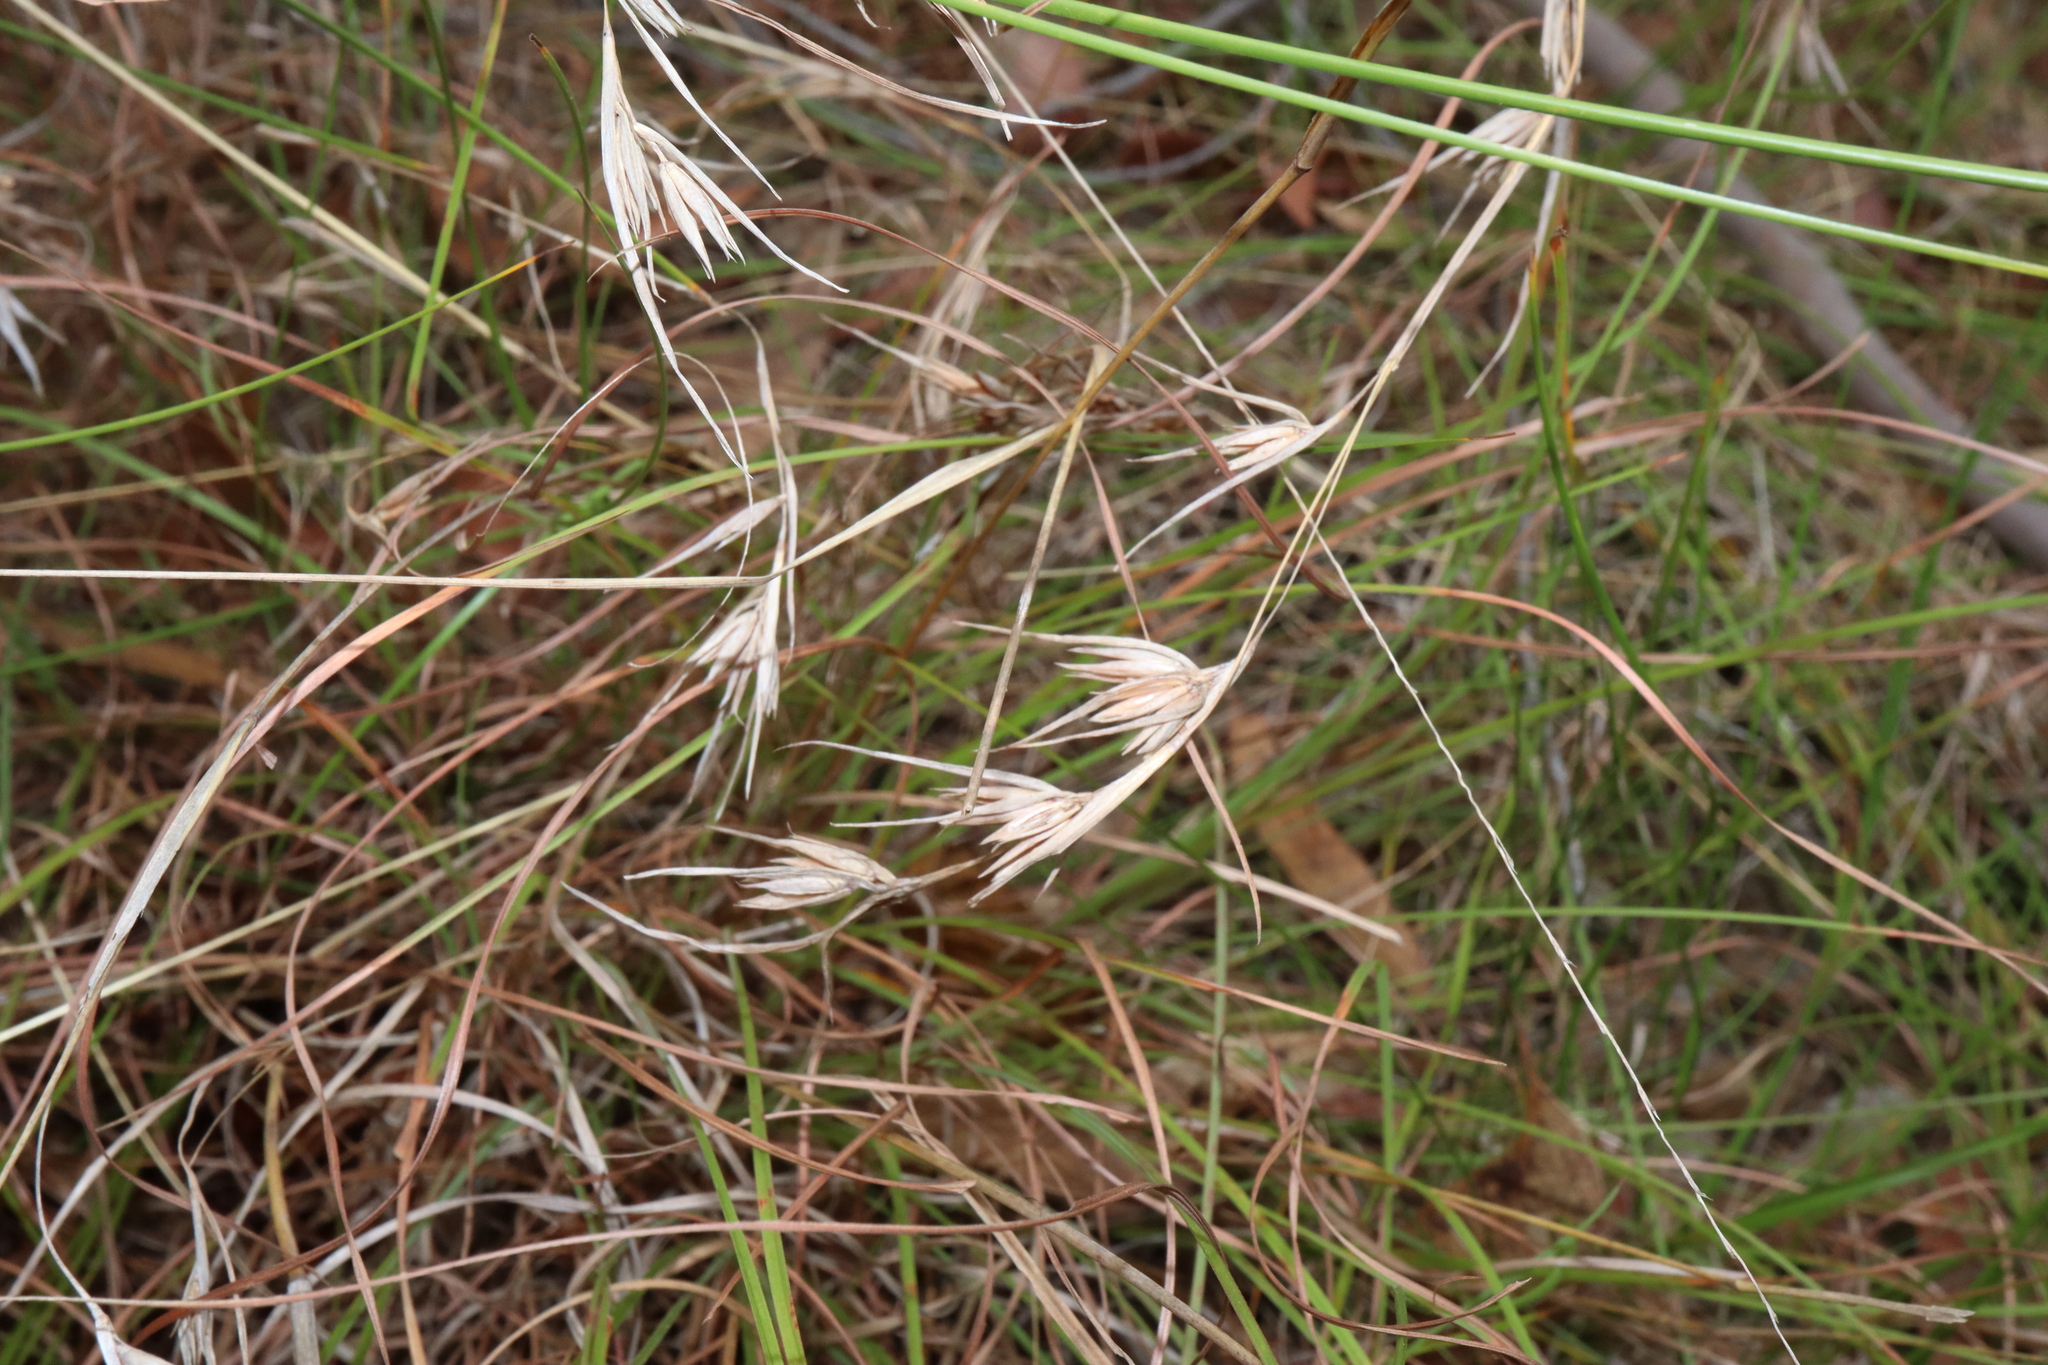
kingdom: Plantae
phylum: Tracheophyta
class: Liliopsida
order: Poales
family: Poaceae
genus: Themeda
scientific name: Themeda triandra
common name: Kangaroo grass
